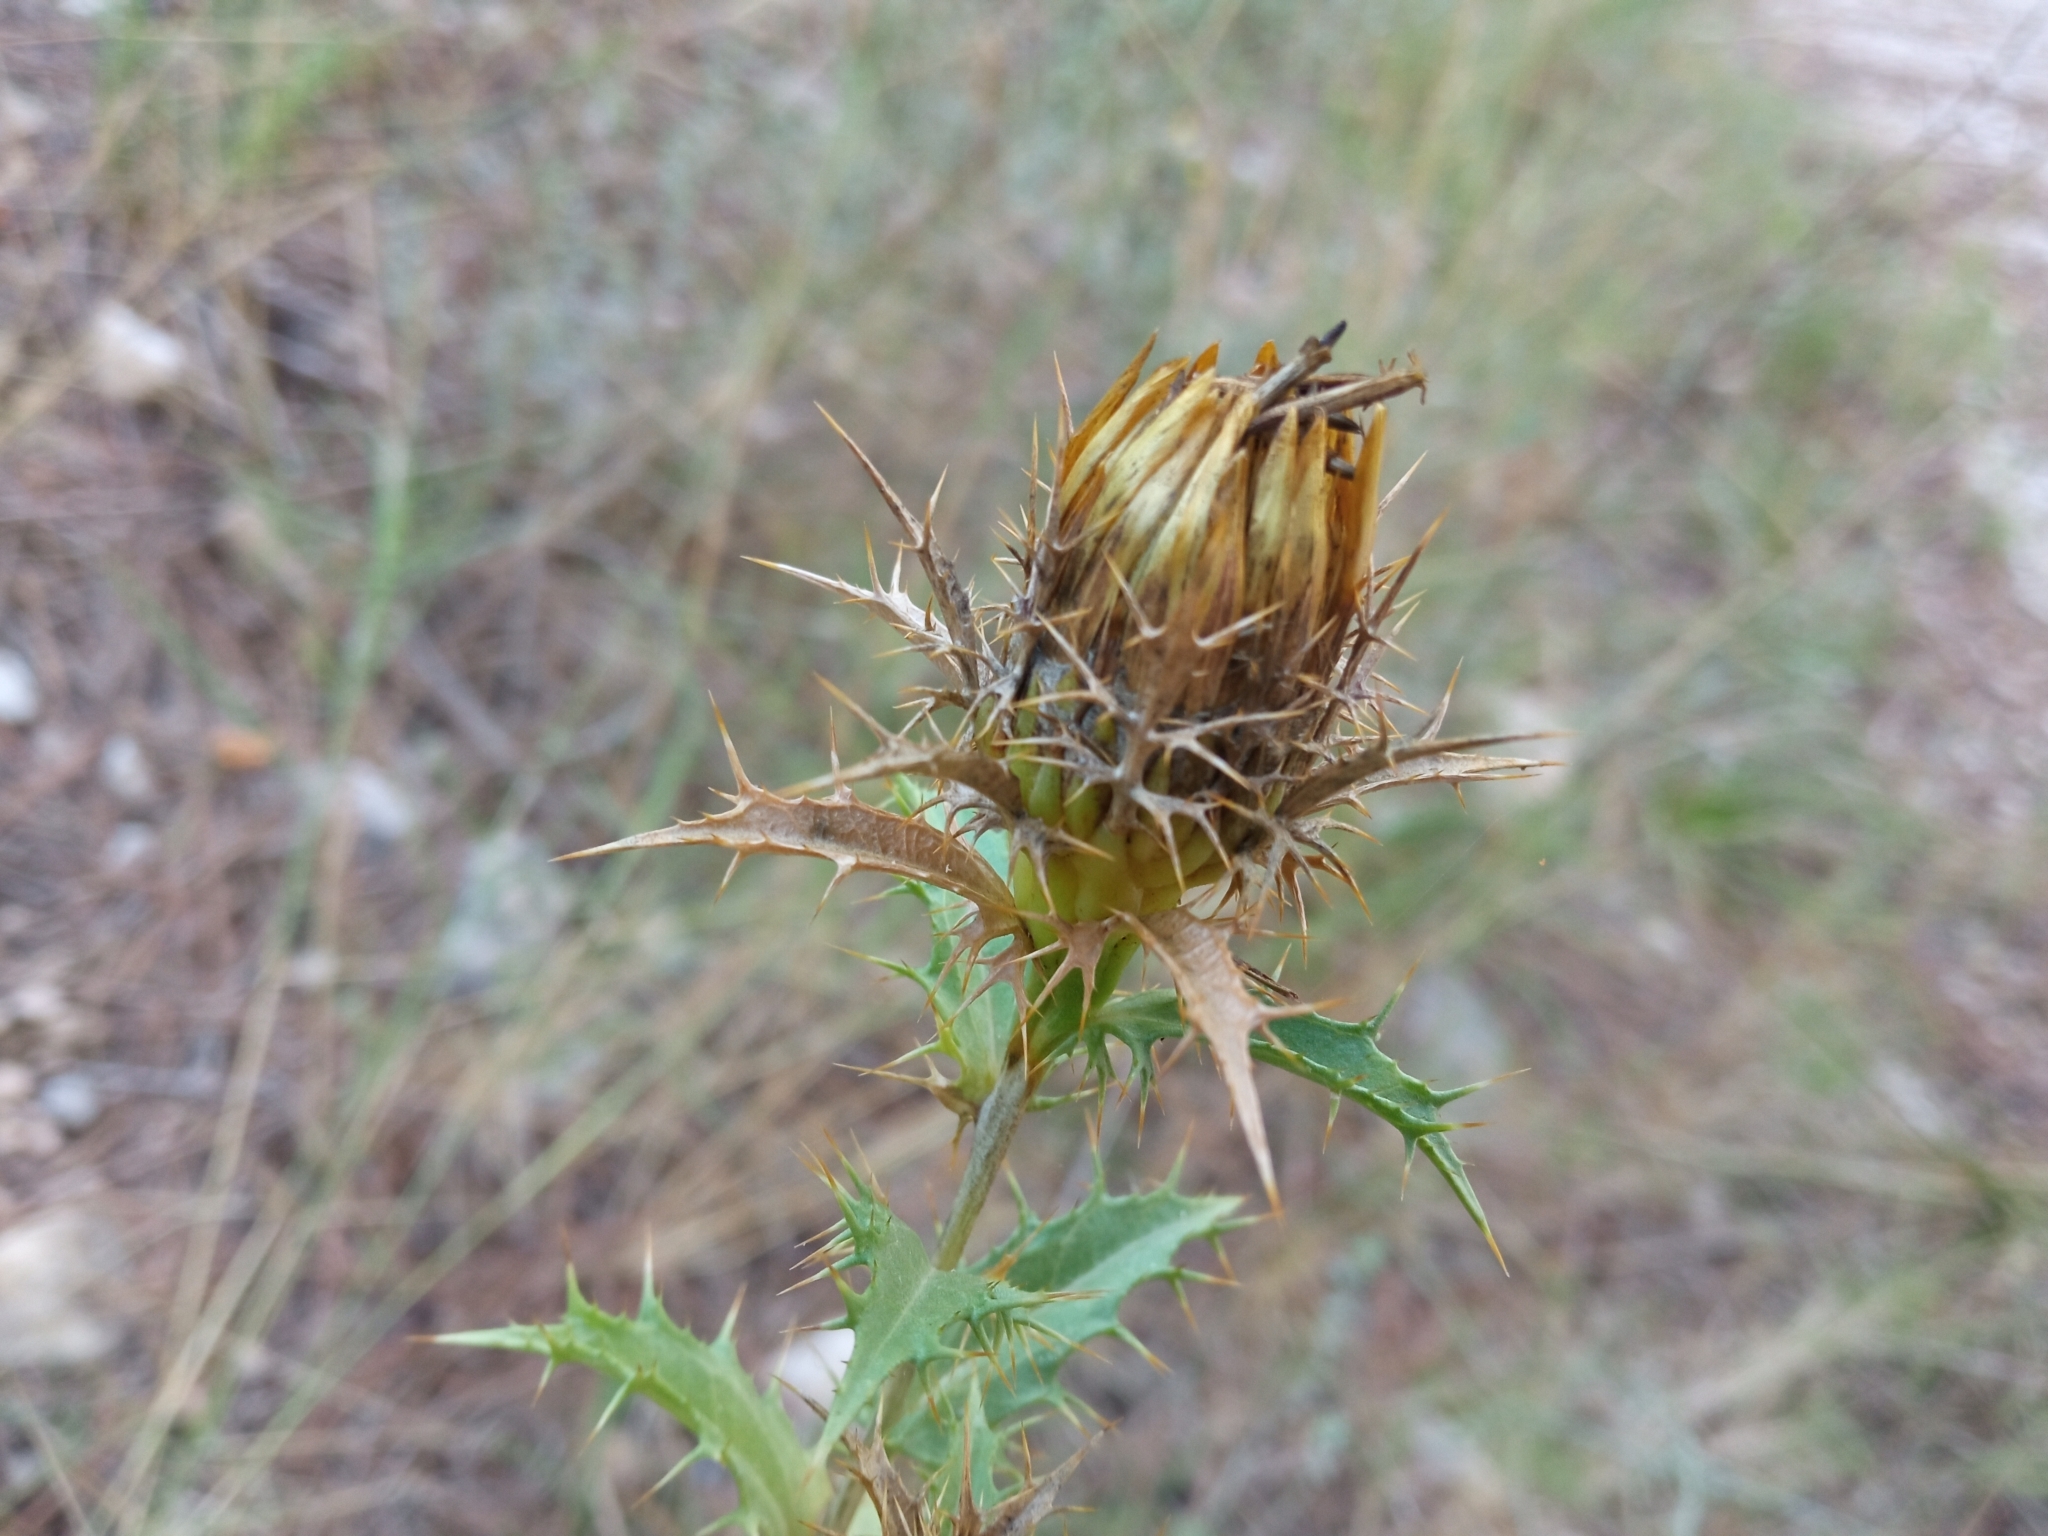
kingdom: Plantae
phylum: Tracheophyta
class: Magnoliopsida
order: Asterales
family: Asteraceae
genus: Carlina
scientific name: Carlina hispanica
